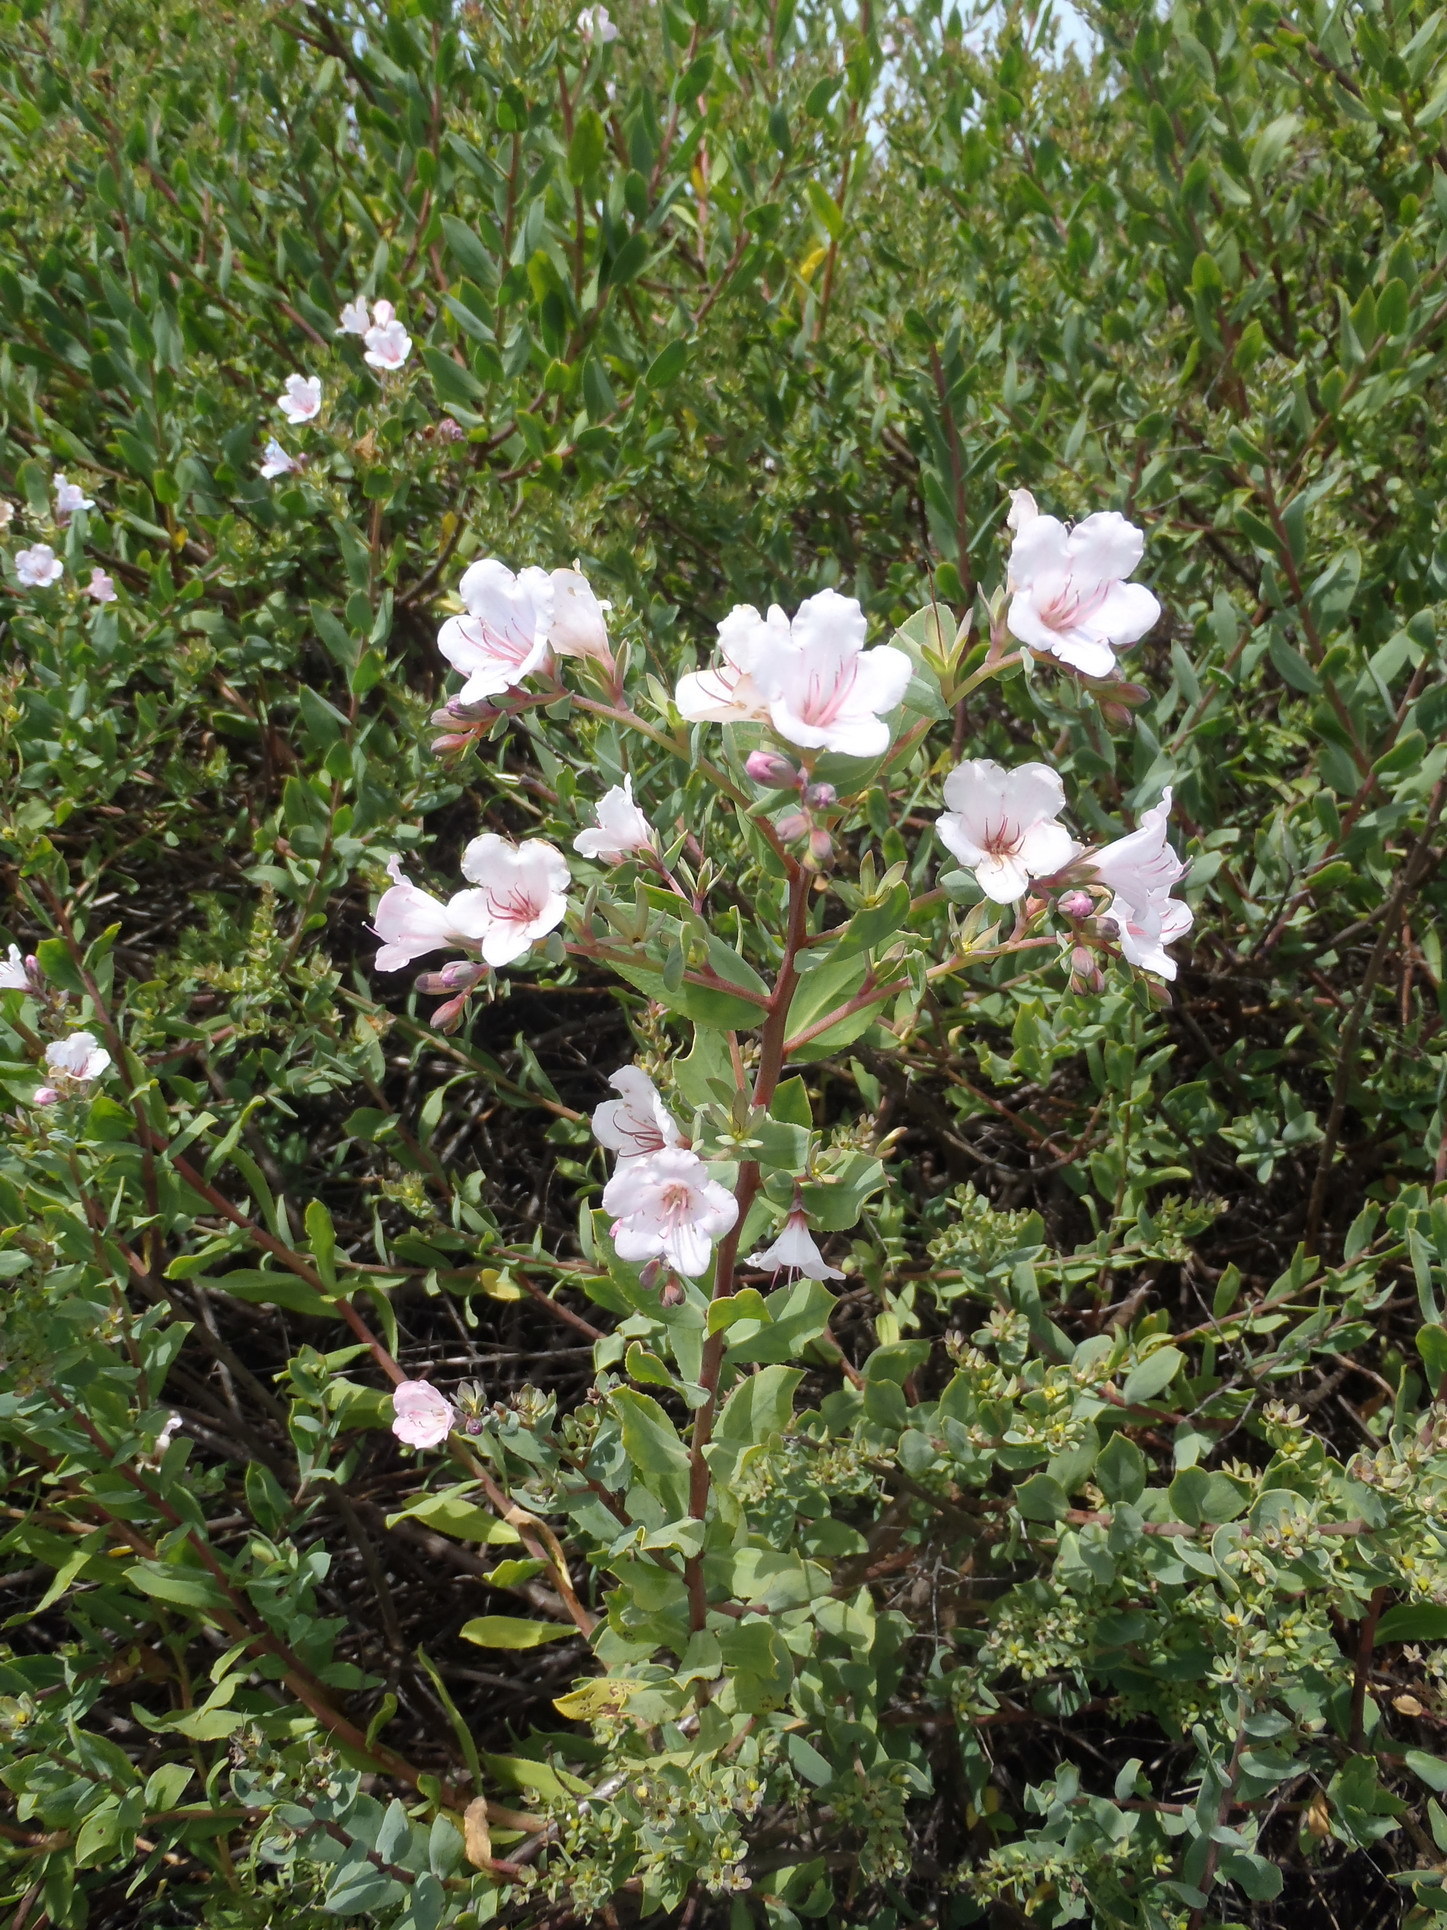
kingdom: Plantae
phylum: Tracheophyta
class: Magnoliopsida
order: Boraginales
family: Boraginaceae
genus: Lobostemon
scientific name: Lobostemon glaucophyllus
